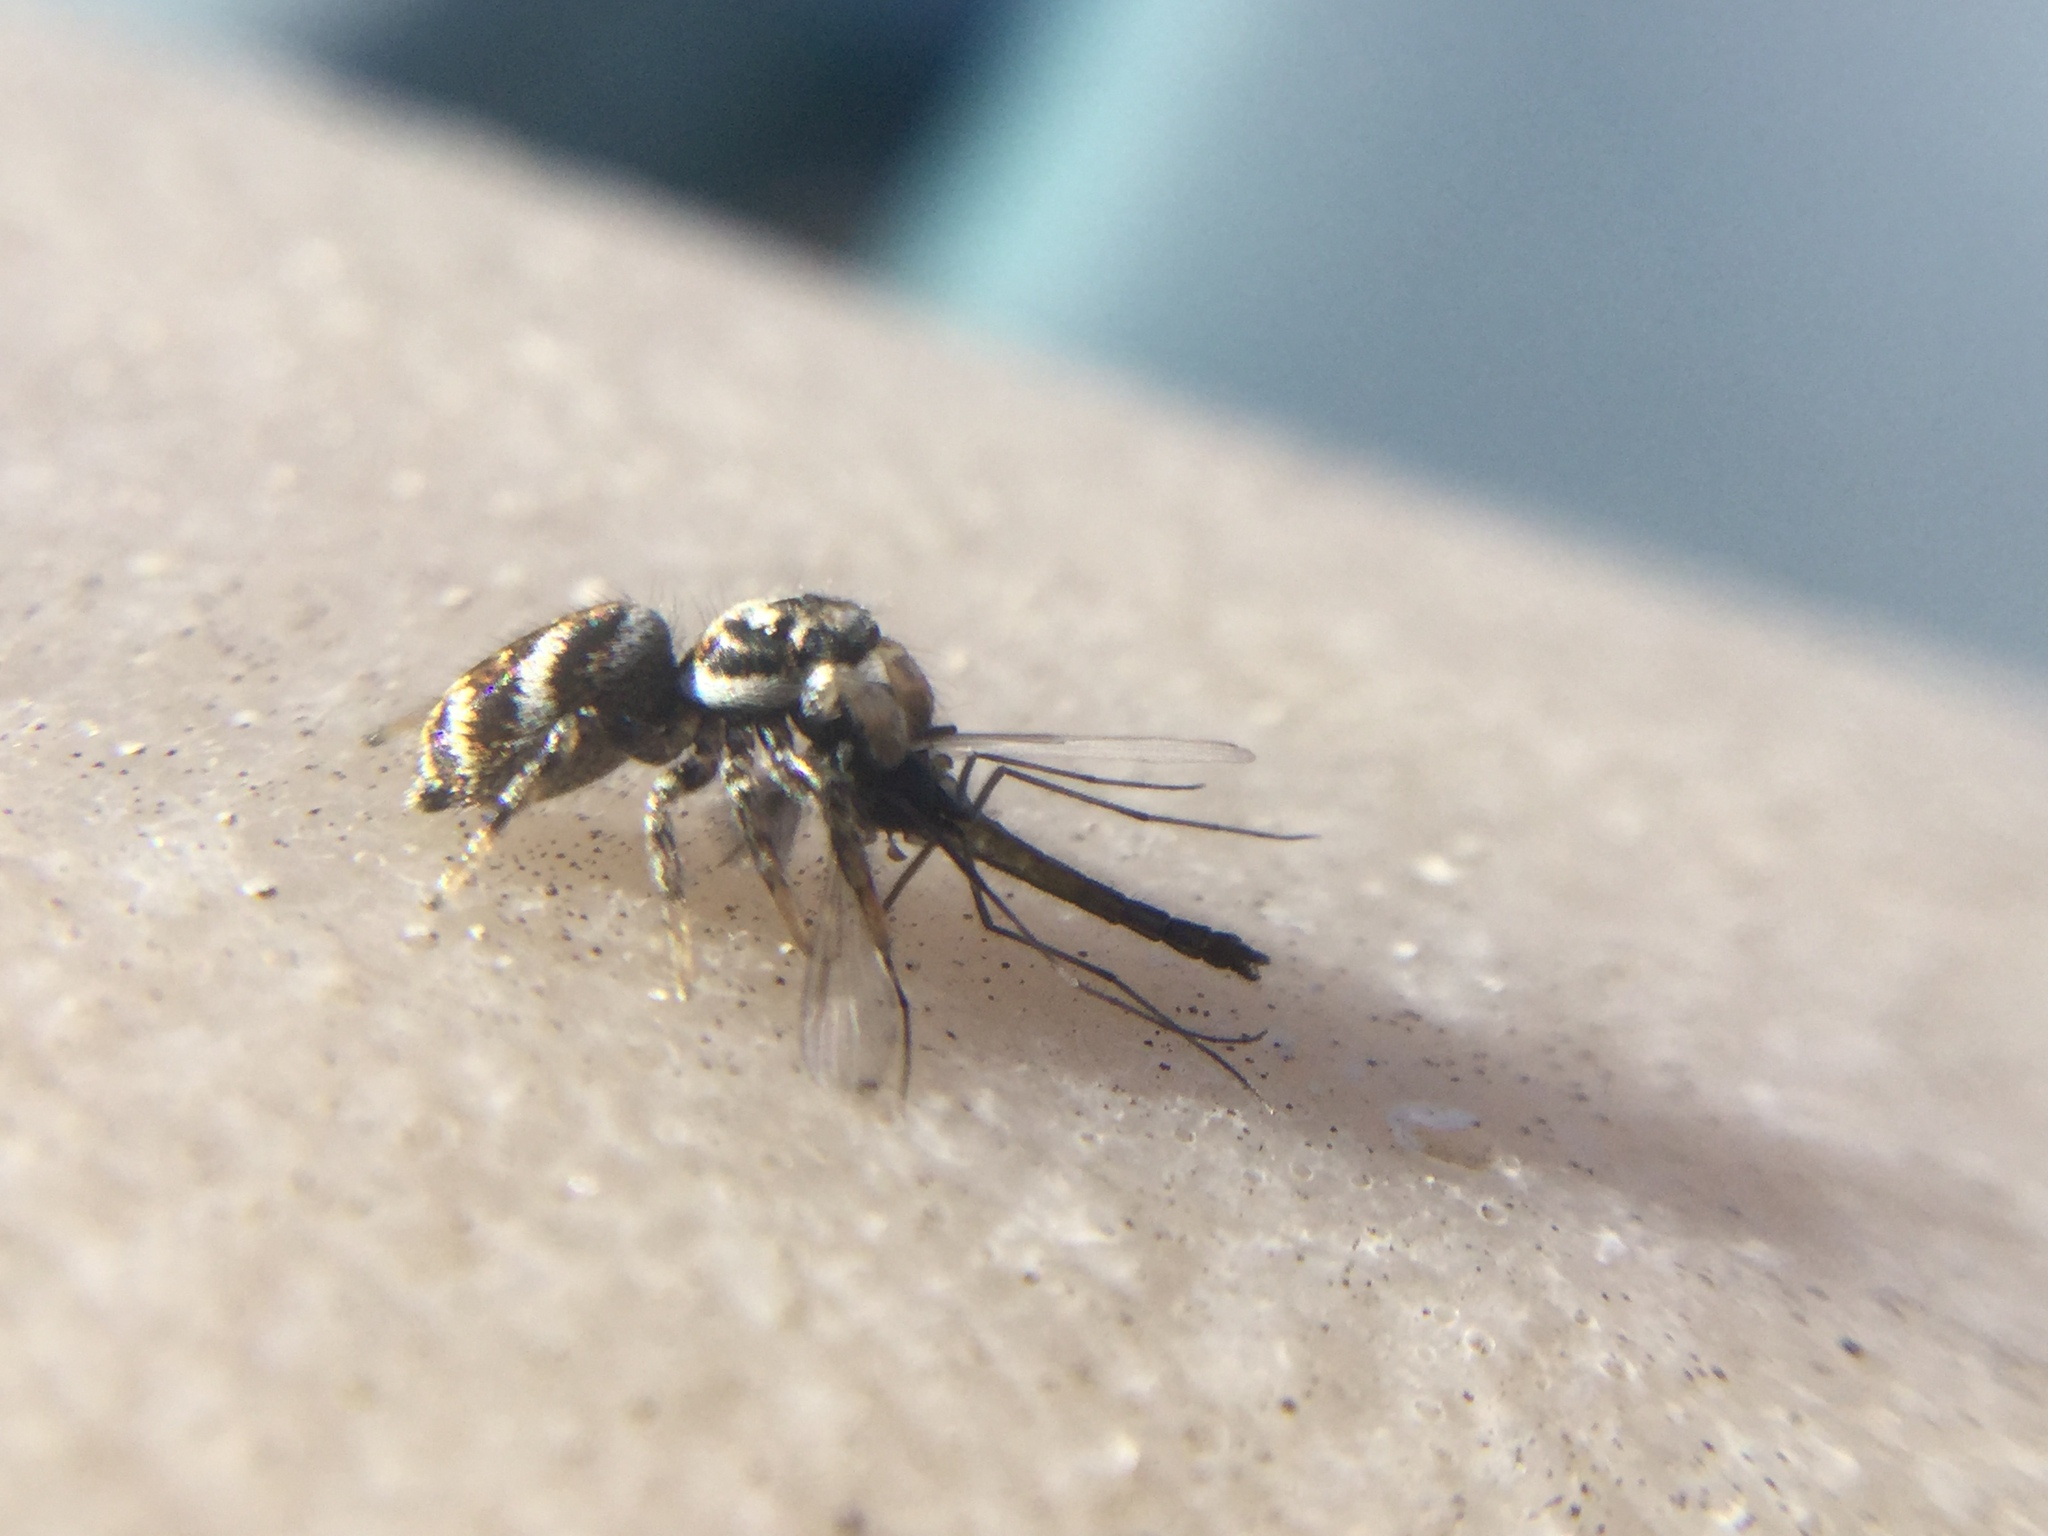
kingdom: Animalia
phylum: Arthropoda
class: Arachnida
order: Araneae
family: Salticidae
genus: Salticus
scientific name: Salticus scenicus
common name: Zebra jumper
